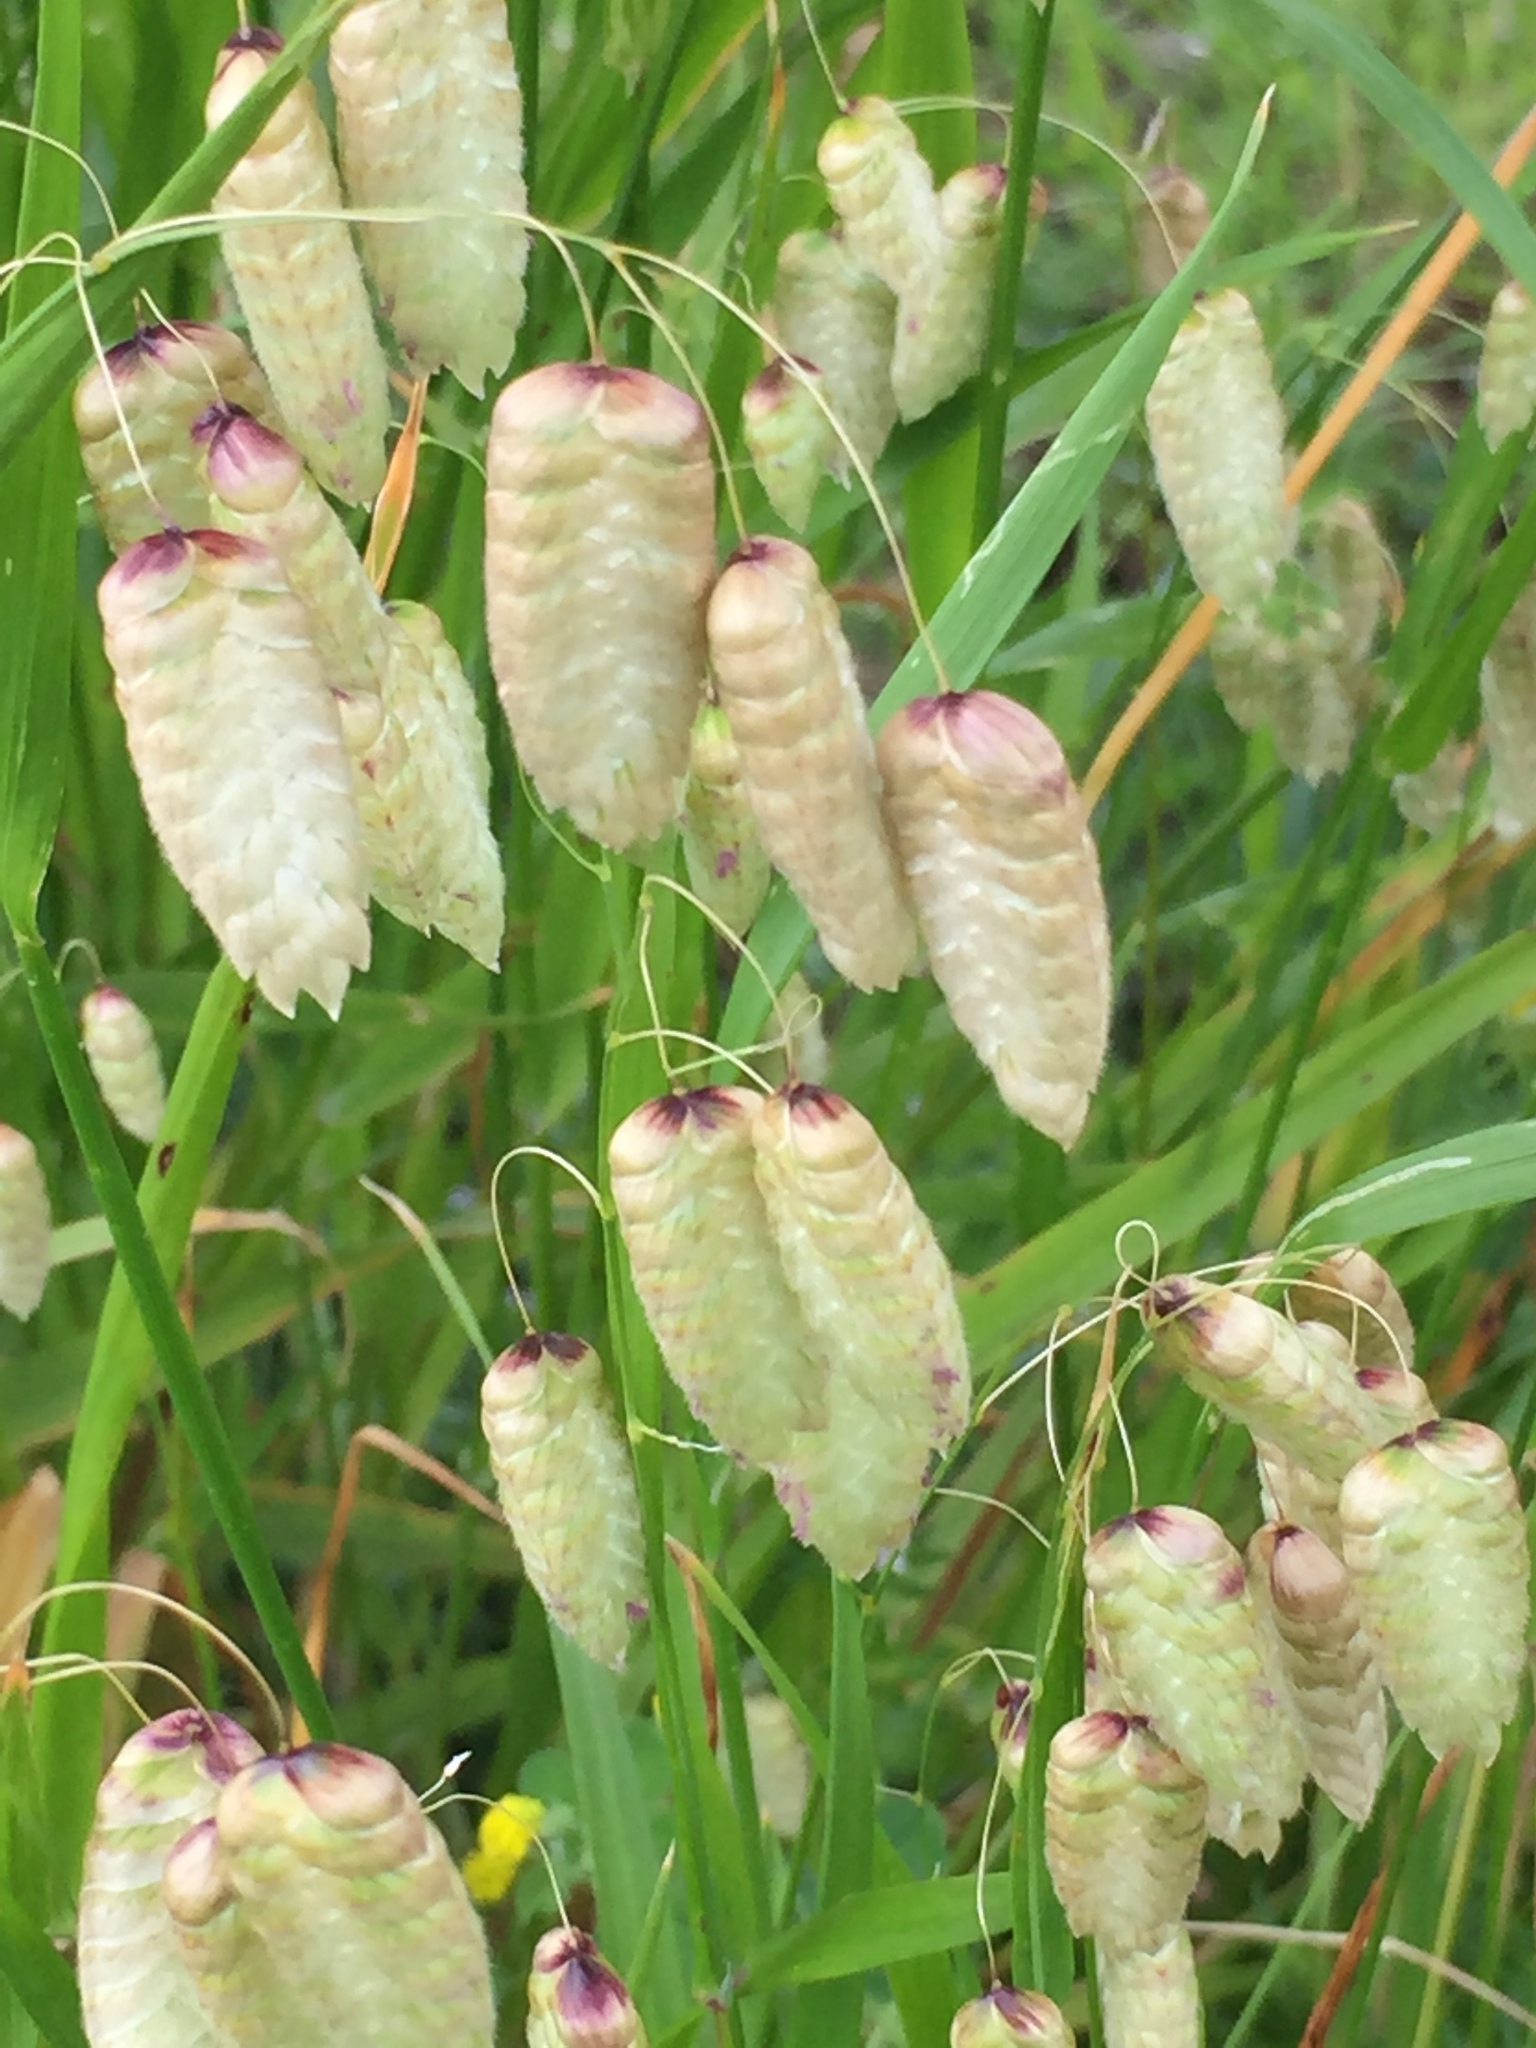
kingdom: Plantae
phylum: Tracheophyta
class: Liliopsida
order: Poales
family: Poaceae
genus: Briza
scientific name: Briza maxima
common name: Big quakinggrass
